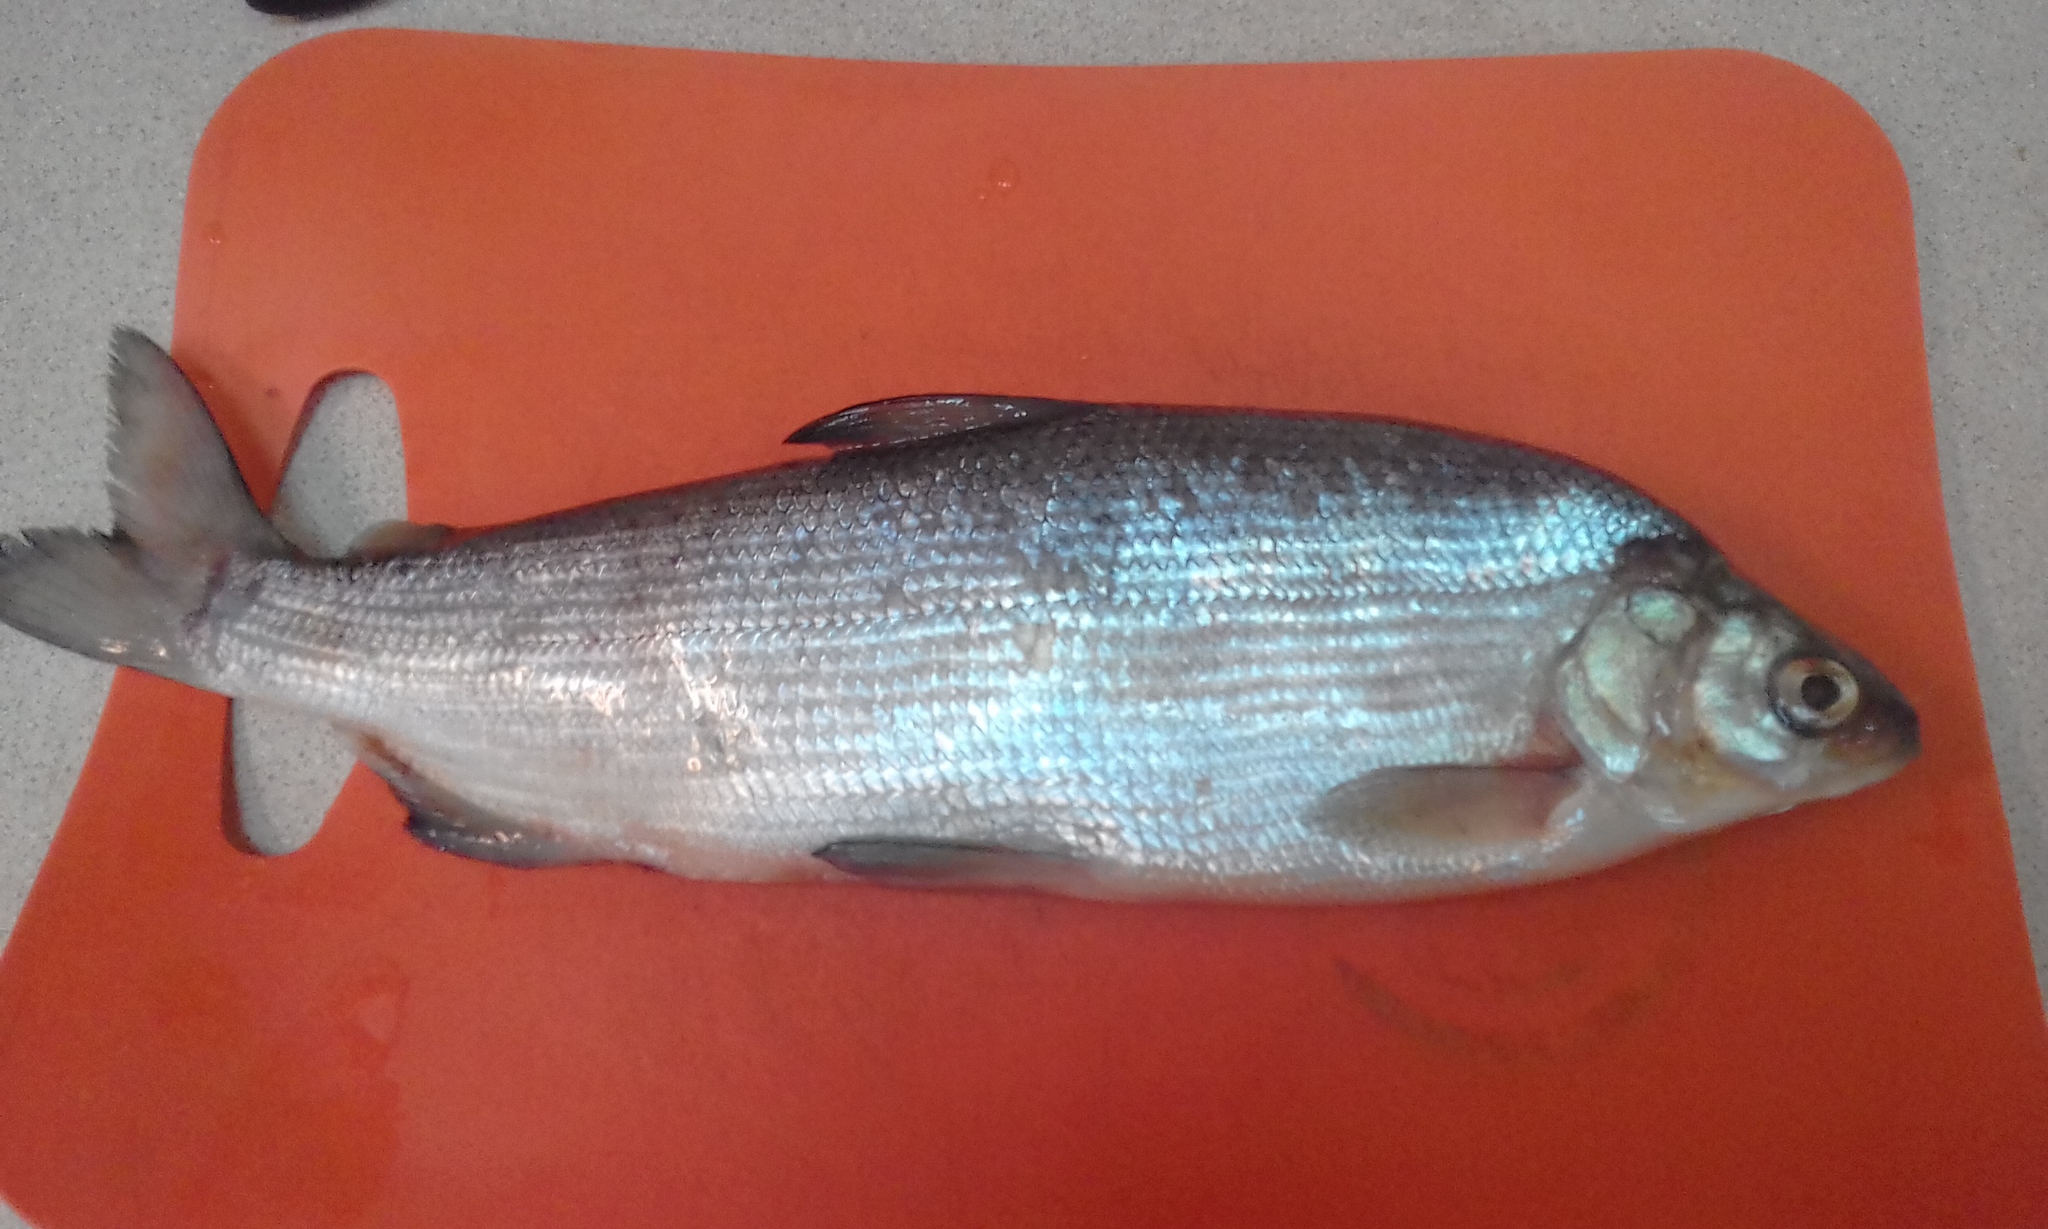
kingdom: Animalia
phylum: Chordata
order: Salmoniformes
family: Salmonidae
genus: Coregonus
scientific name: Coregonus peled
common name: Northern whitefish
